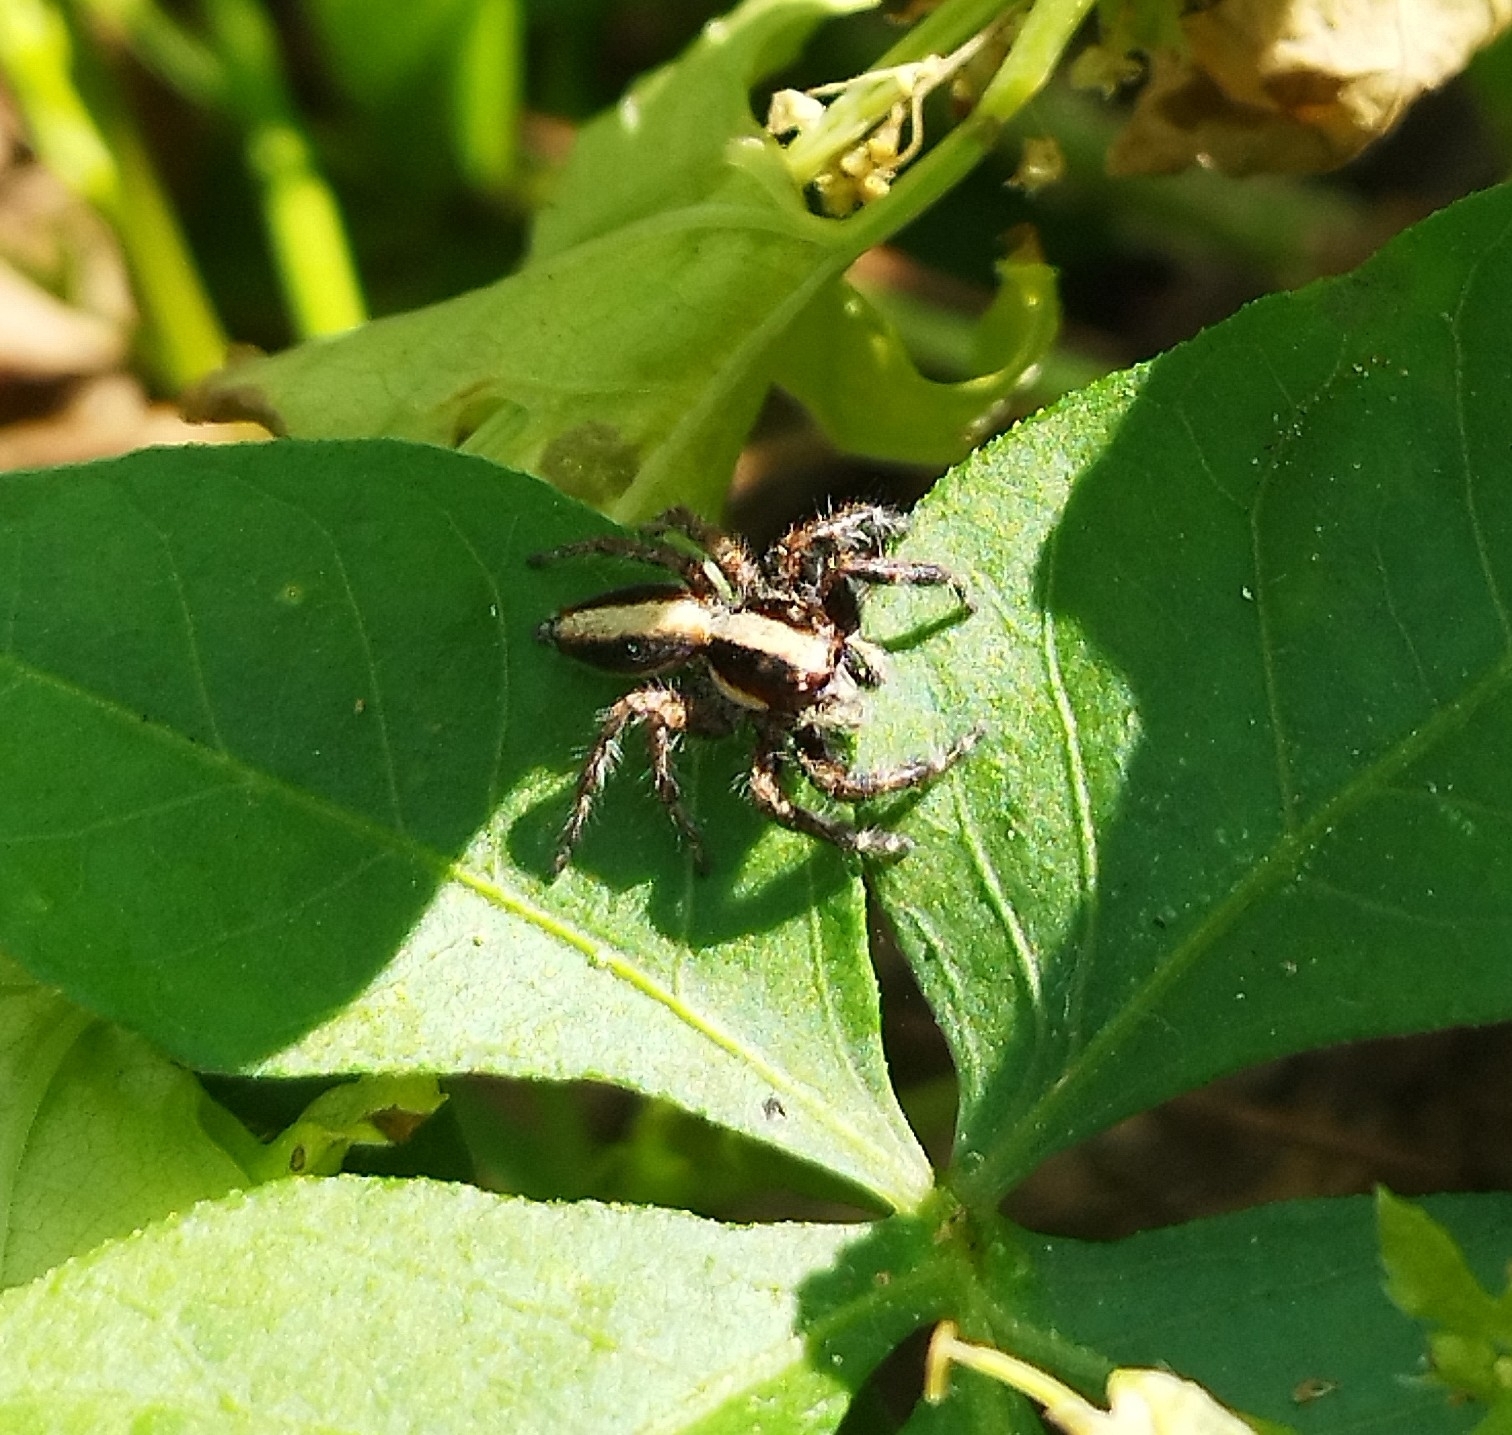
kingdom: Animalia
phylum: Arthropoda
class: Arachnida
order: Araneae
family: Salticidae
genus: Megafreya
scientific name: Megafreya sutrix
